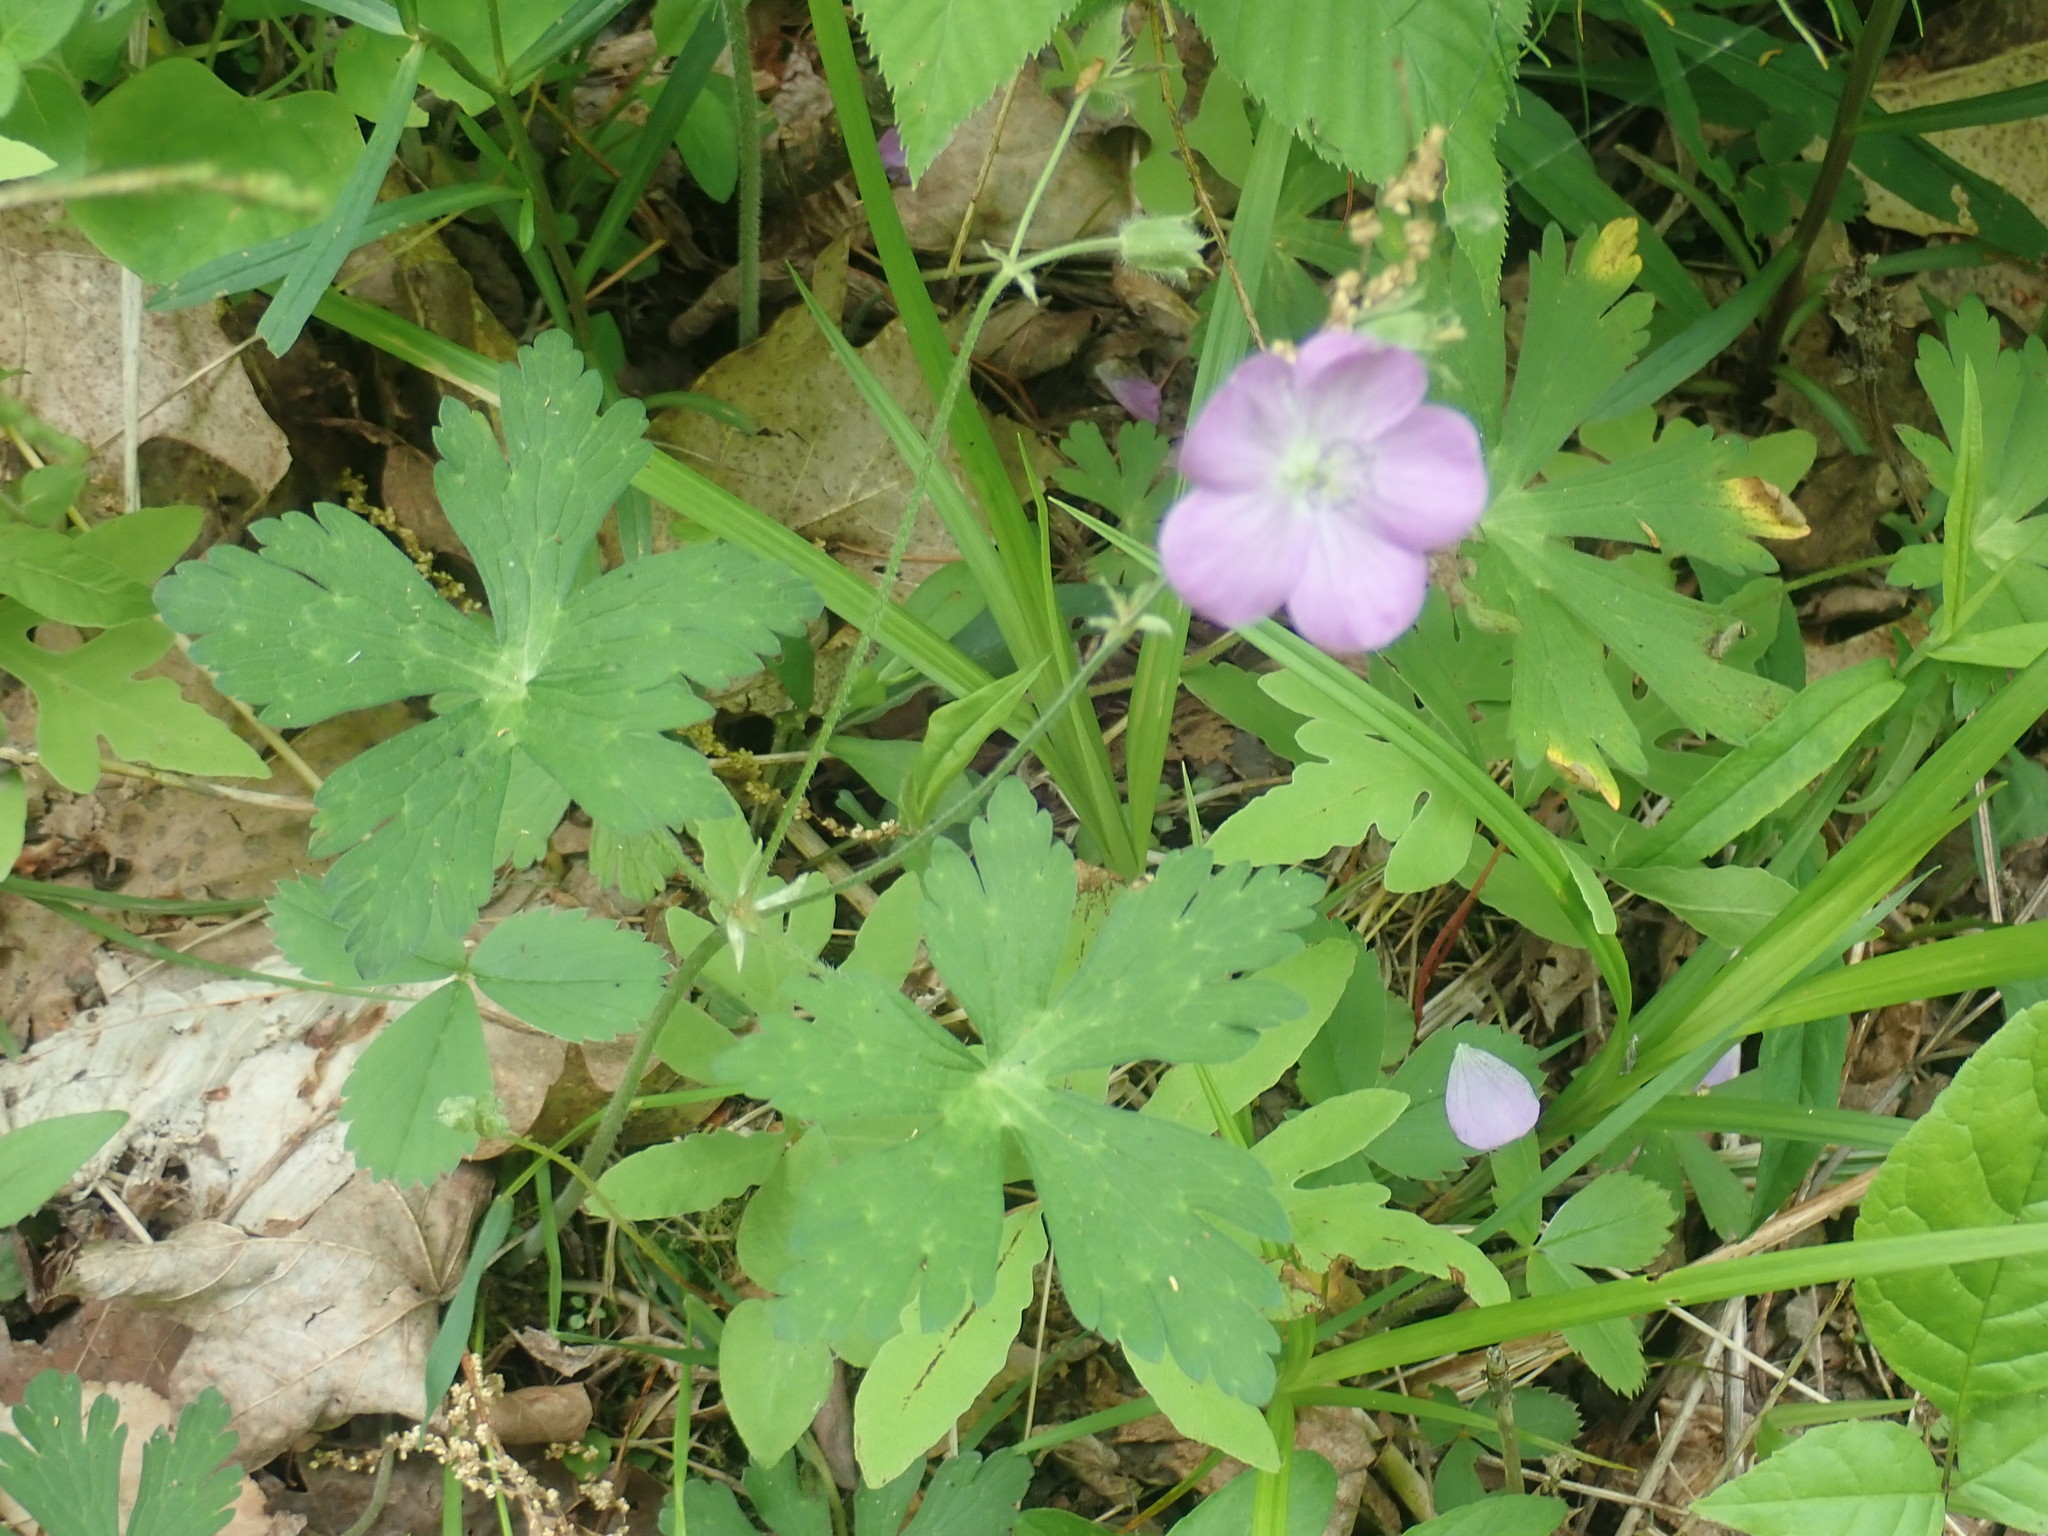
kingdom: Plantae
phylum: Tracheophyta
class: Magnoliopsida
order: Geraniales
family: Geraniaceae
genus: Geranium
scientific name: Geranium maculatum
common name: Spotted geranium
